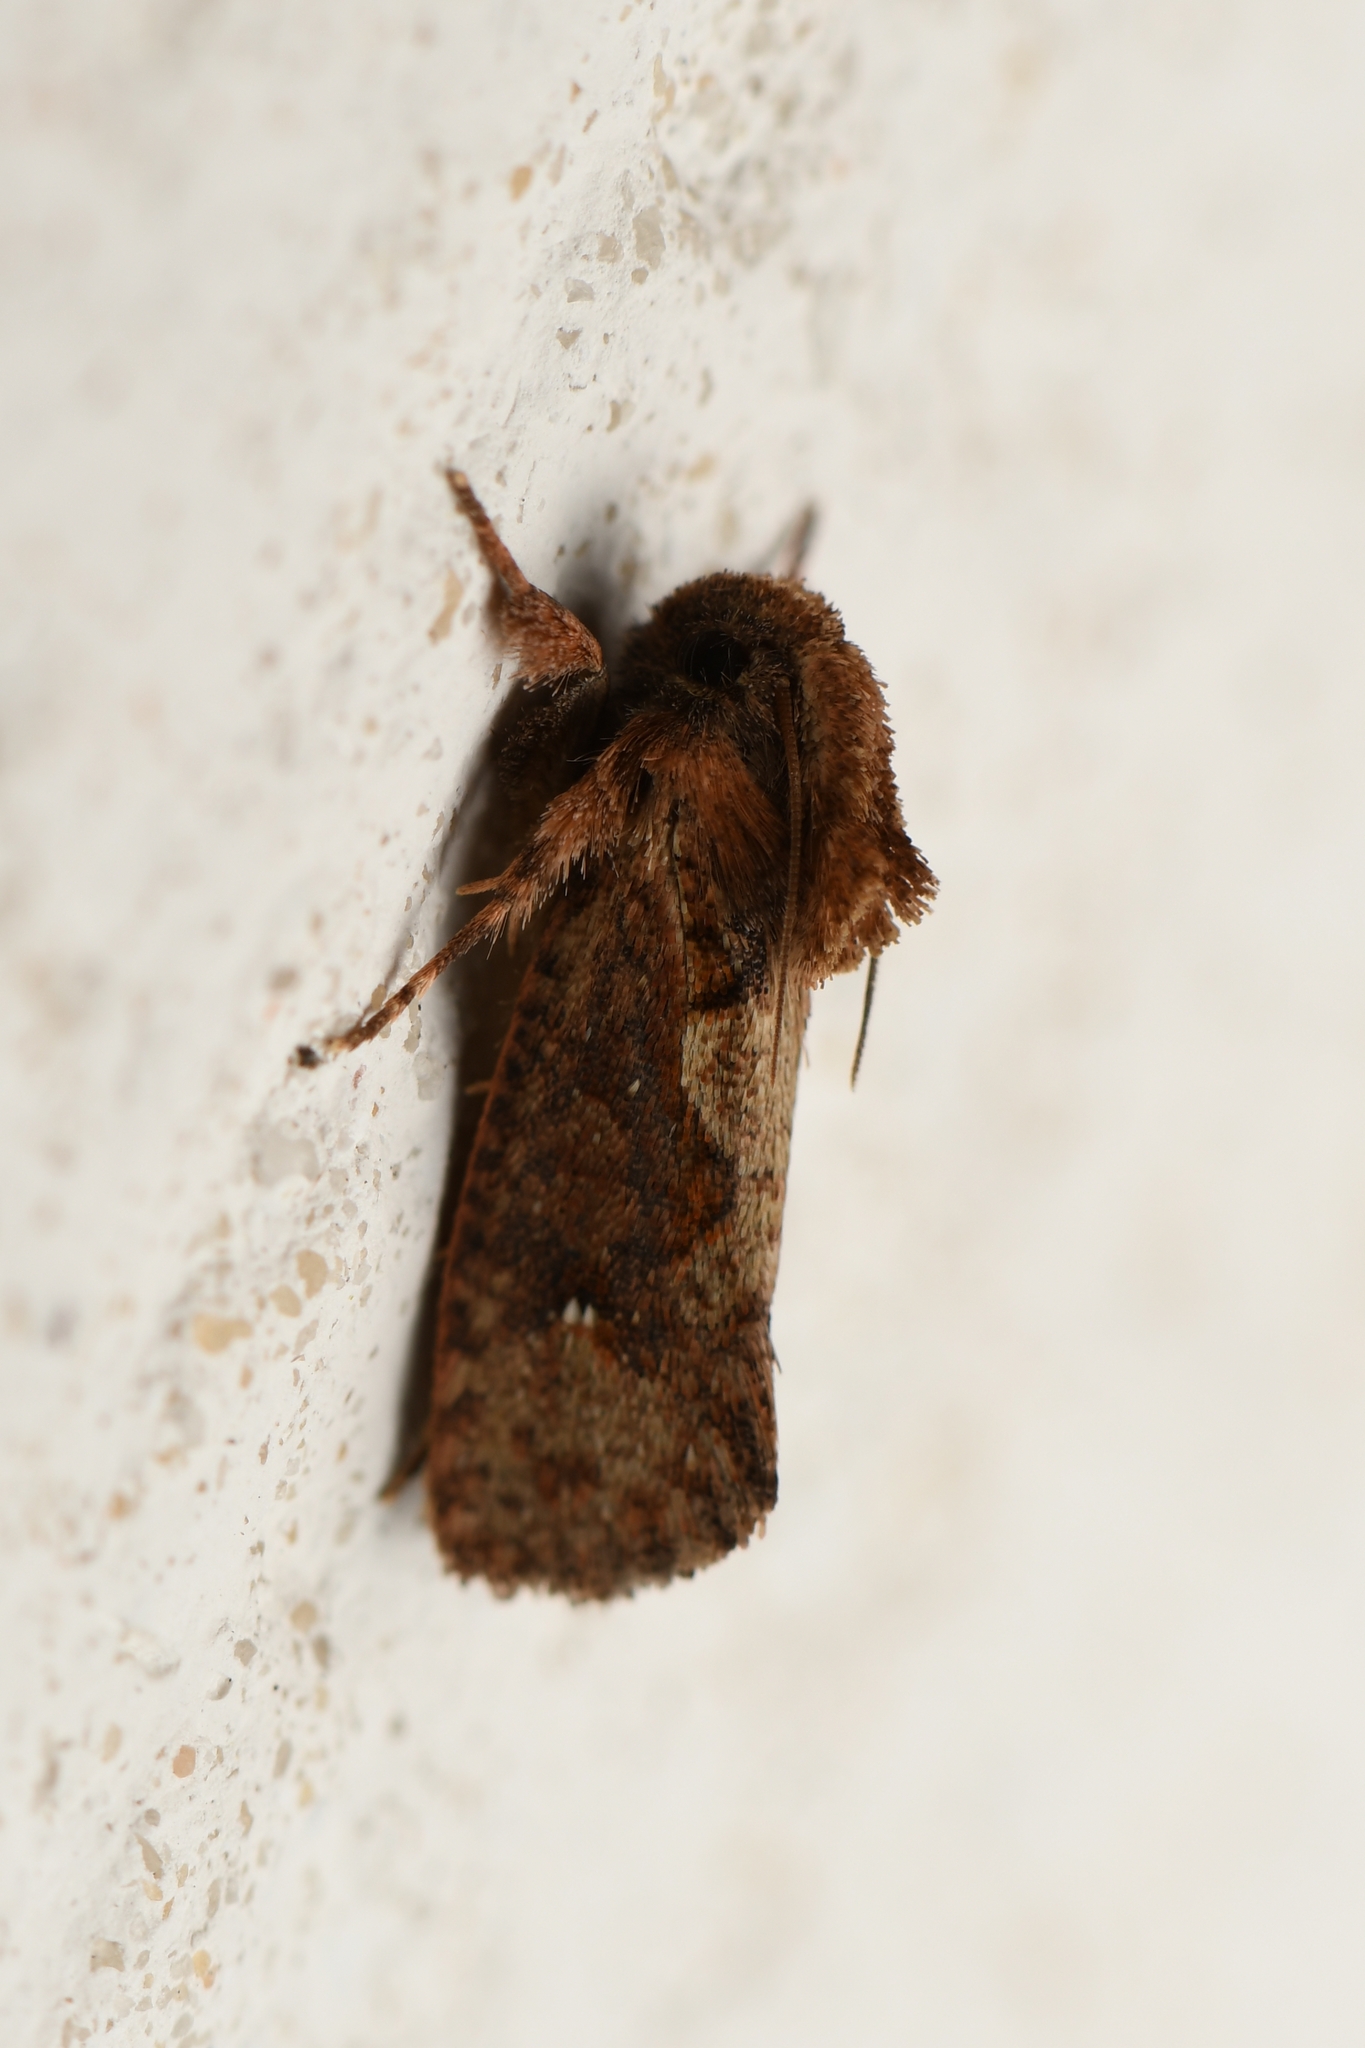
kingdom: Animalia
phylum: Arthropoda
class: Insecta
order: Lepidoptera
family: Tineidae
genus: Acrolophus
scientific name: Acrolophus walsinghami
